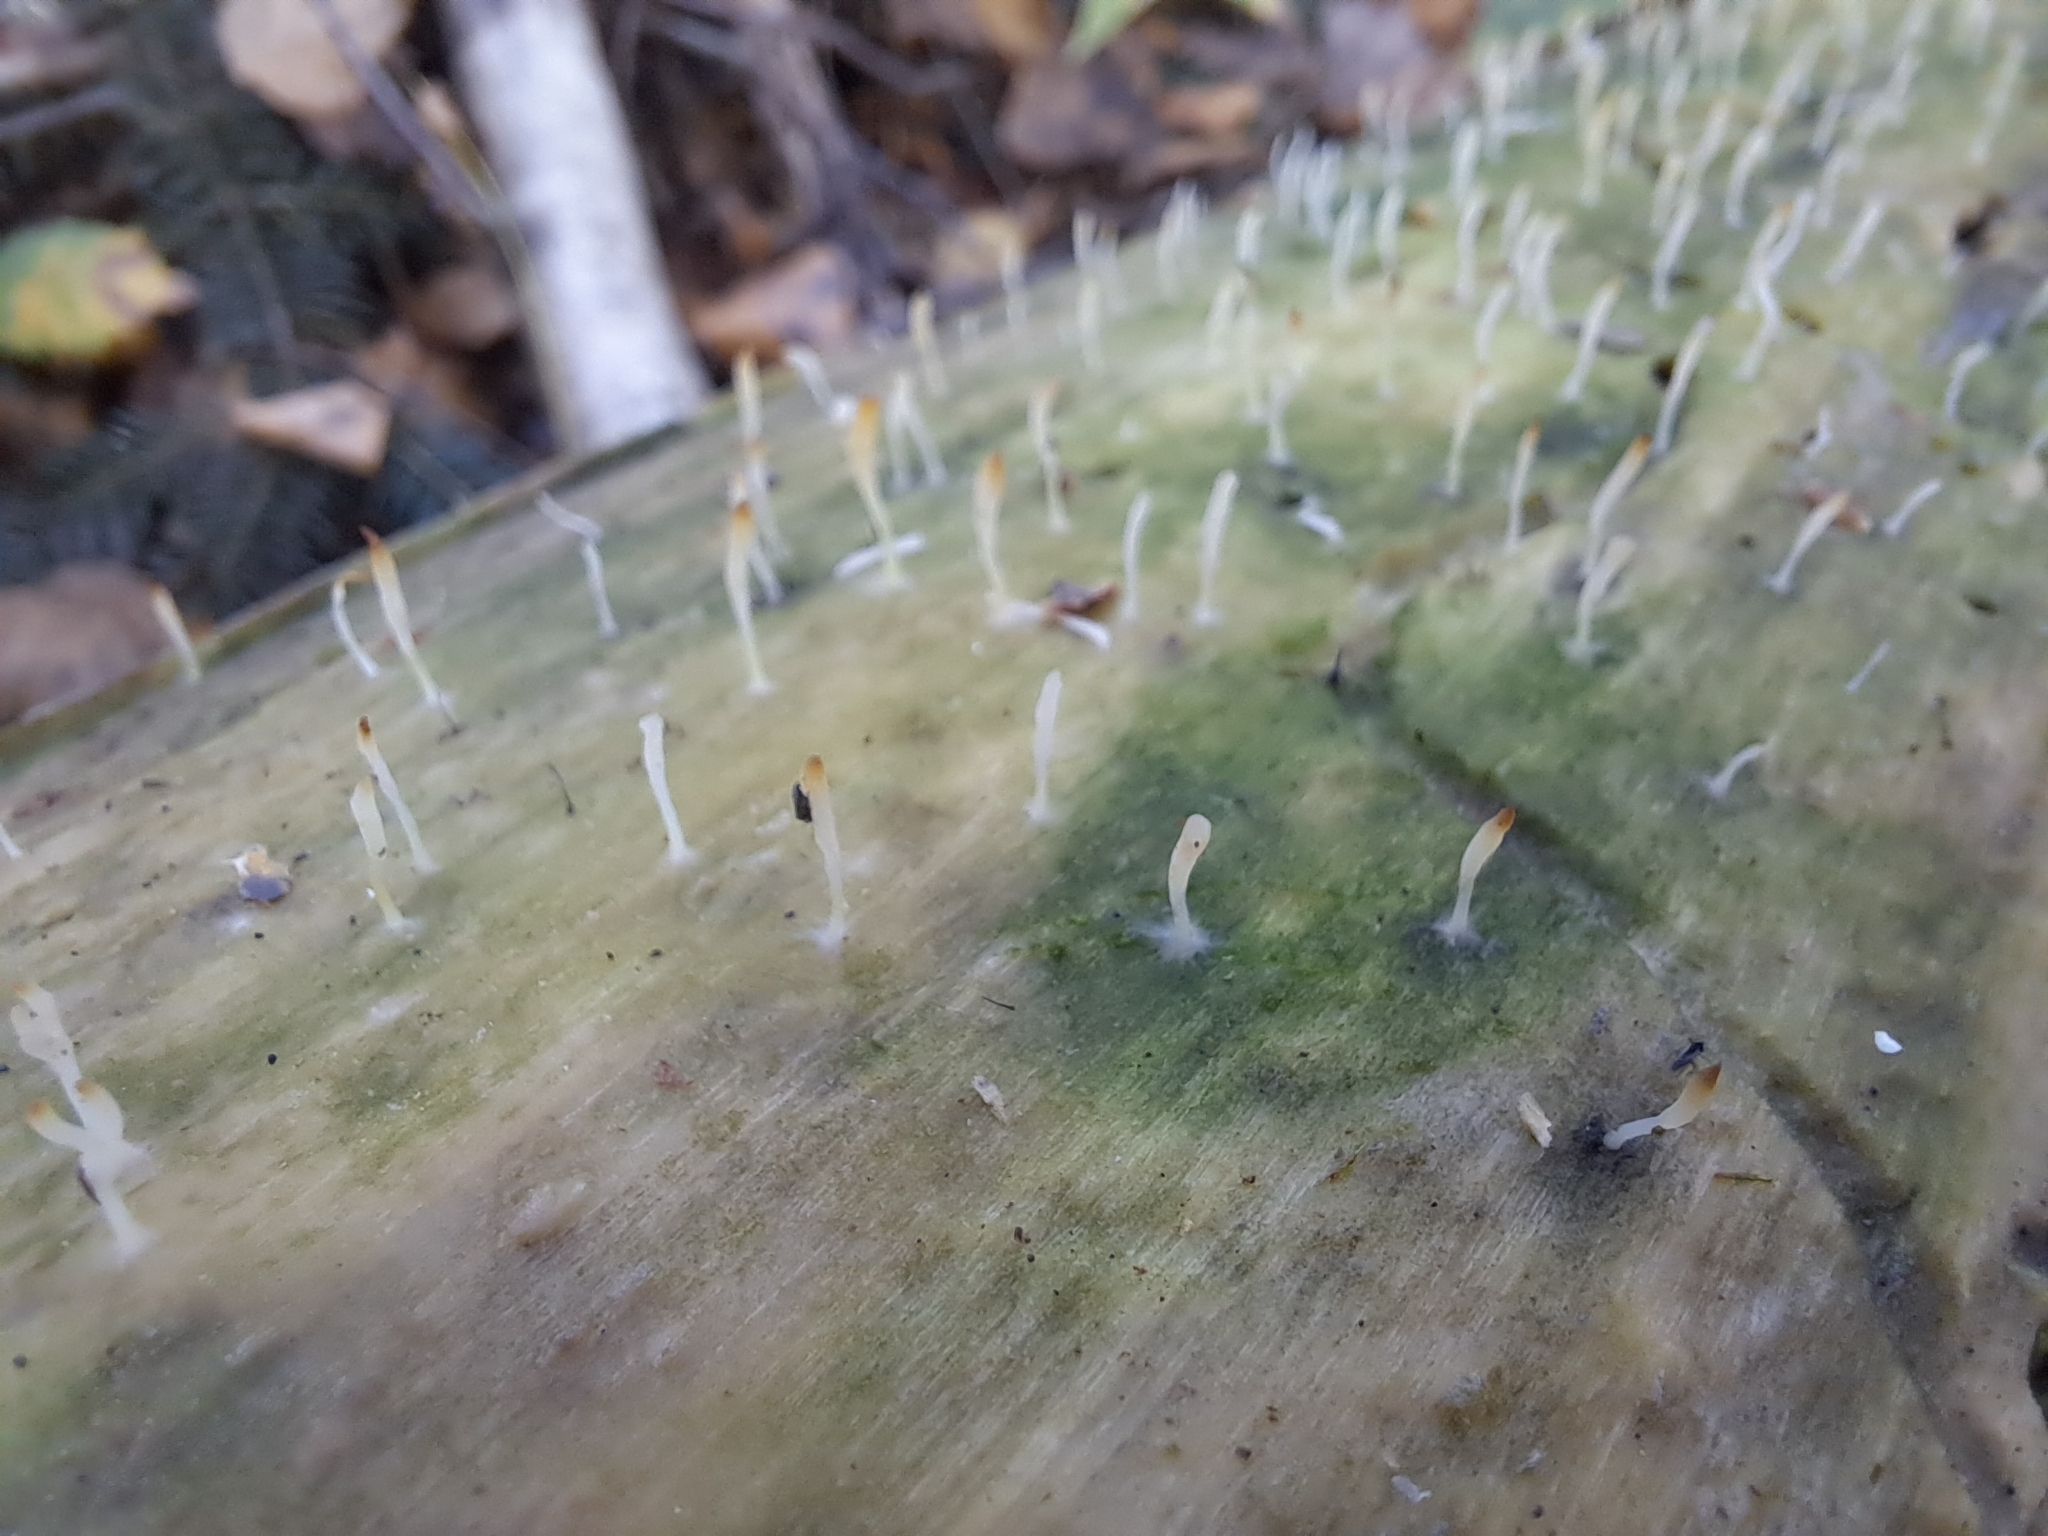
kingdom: Fungi
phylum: Basidiomycota
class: Agaricomycetes
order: Cantharellales
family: Hydnaceae
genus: Multiclavula
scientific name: Multiclavula mucida
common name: White green-algae coral
